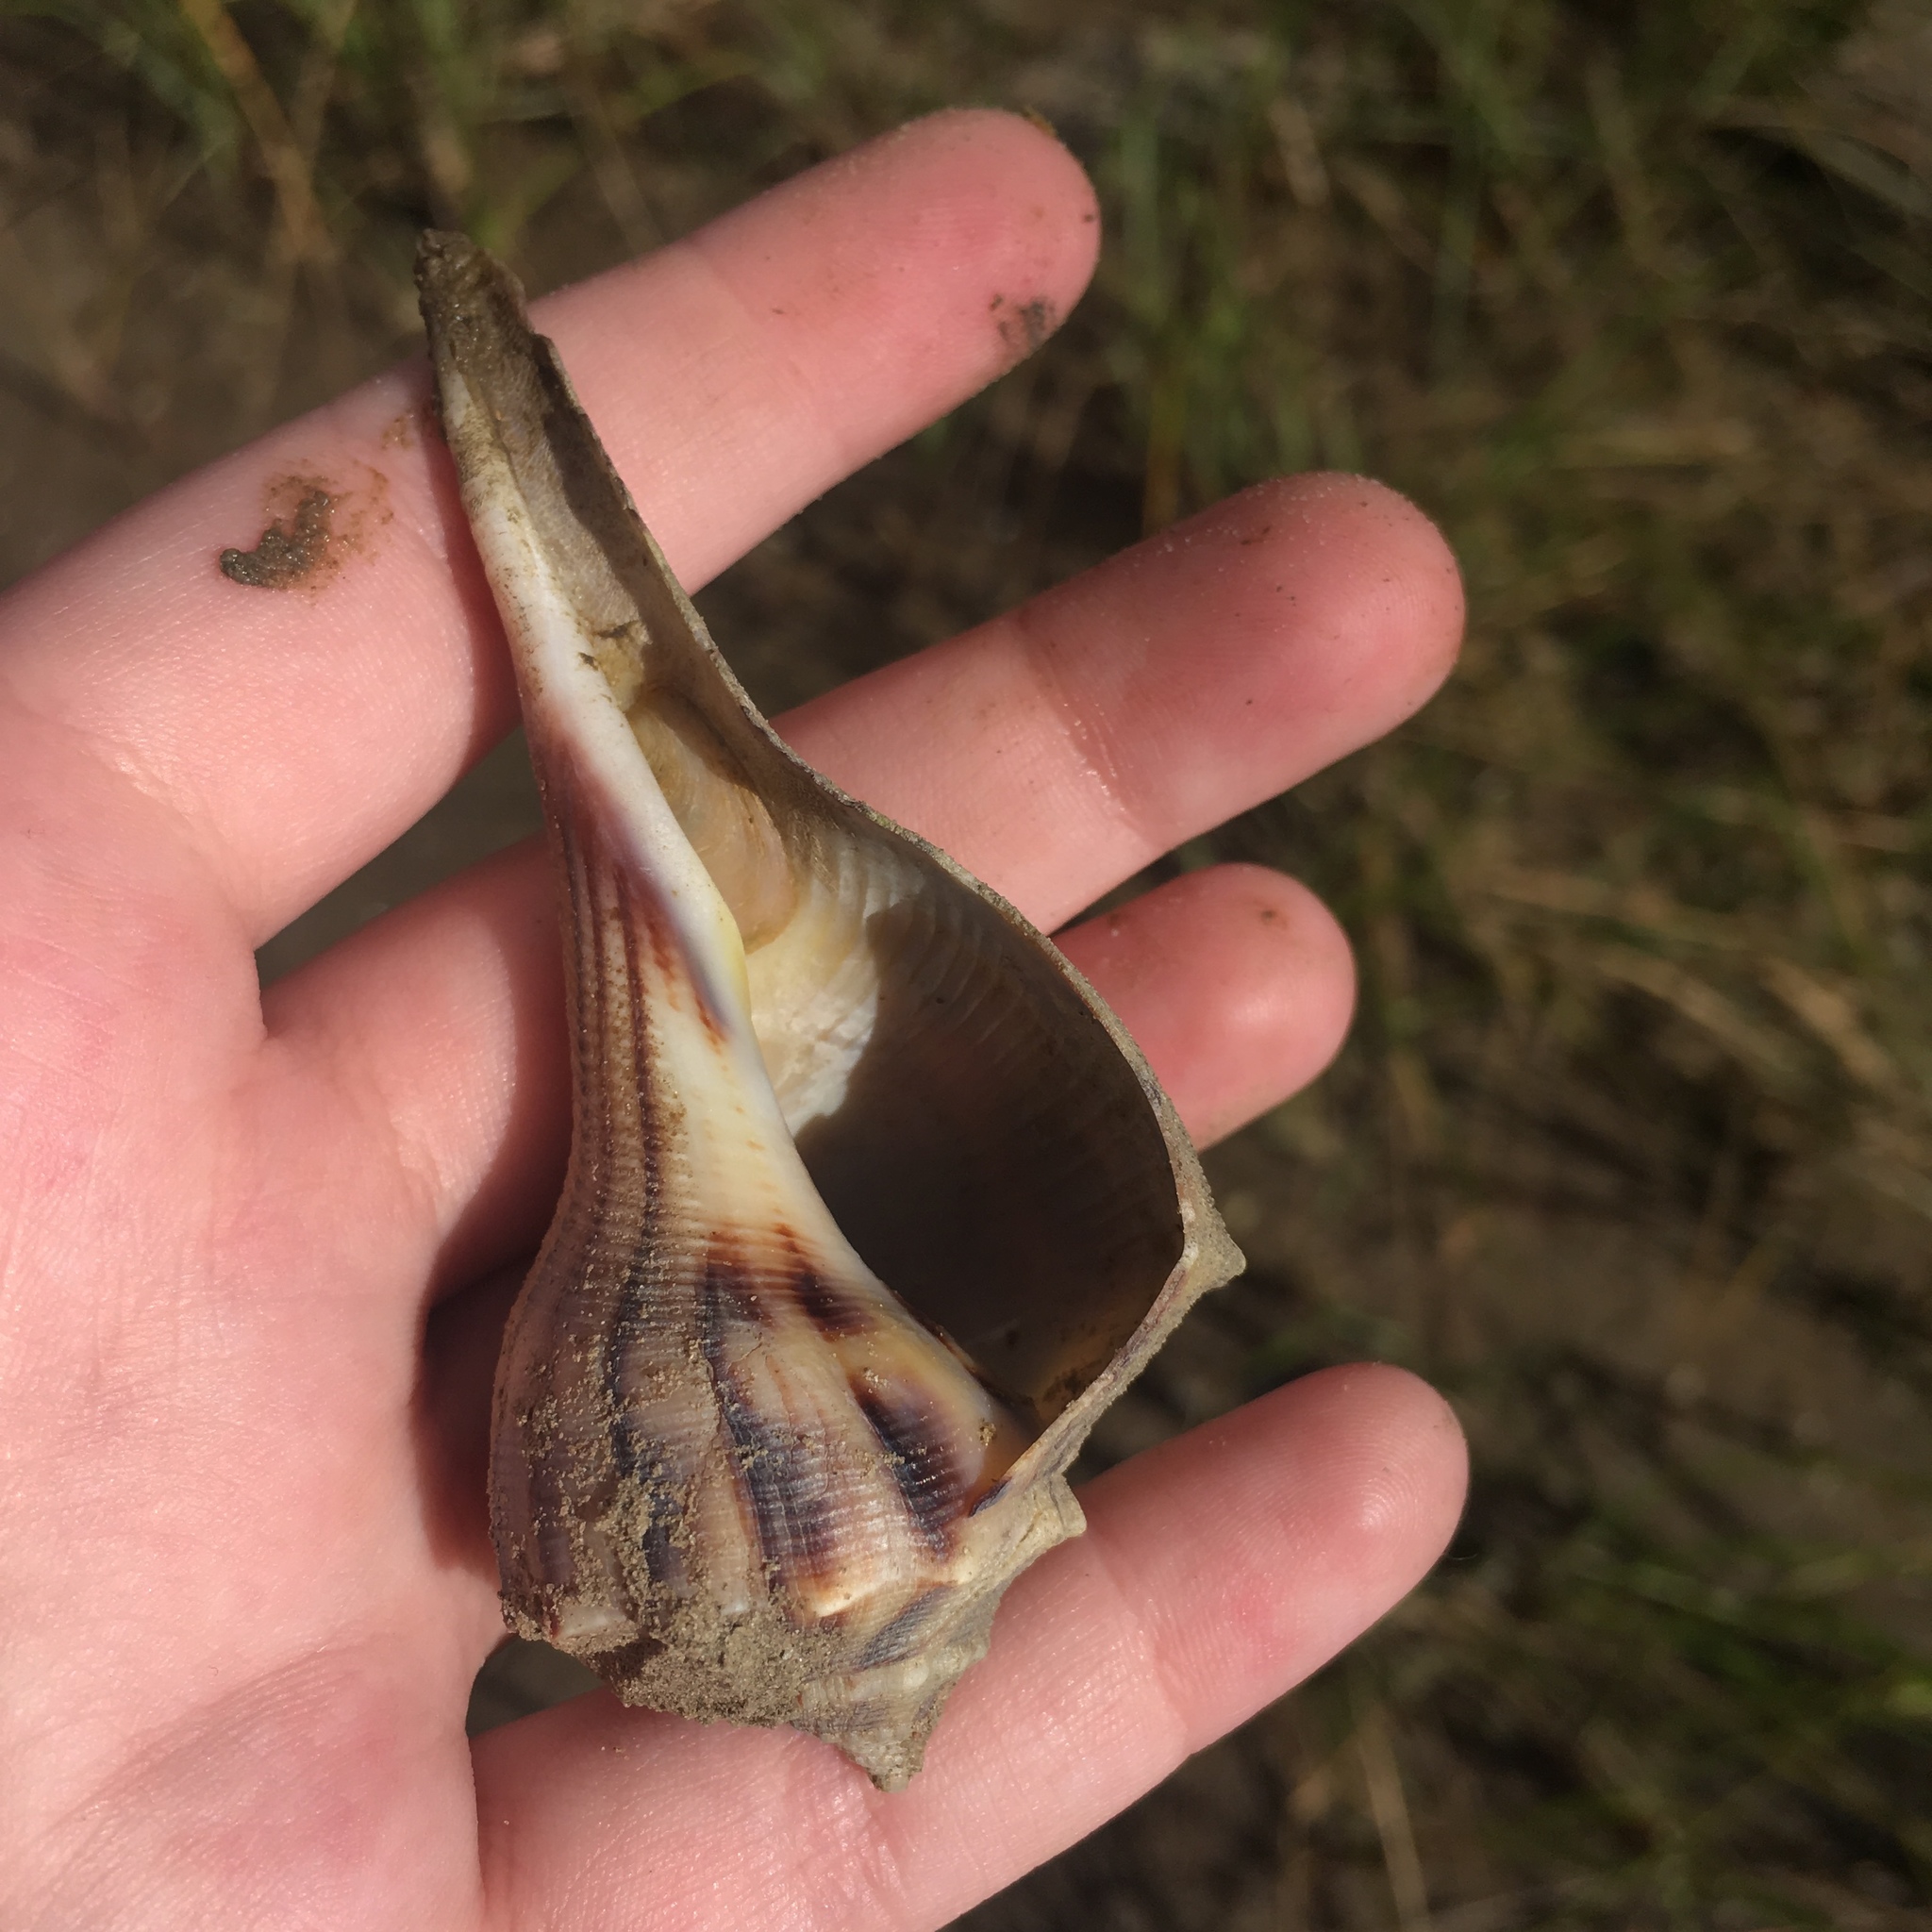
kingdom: Animalia
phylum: Mollusca
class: Gastropoda
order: Neogastropoda
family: Busyconidae
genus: Sinistrofulgur
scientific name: Sinistrofulgur pulleyi
